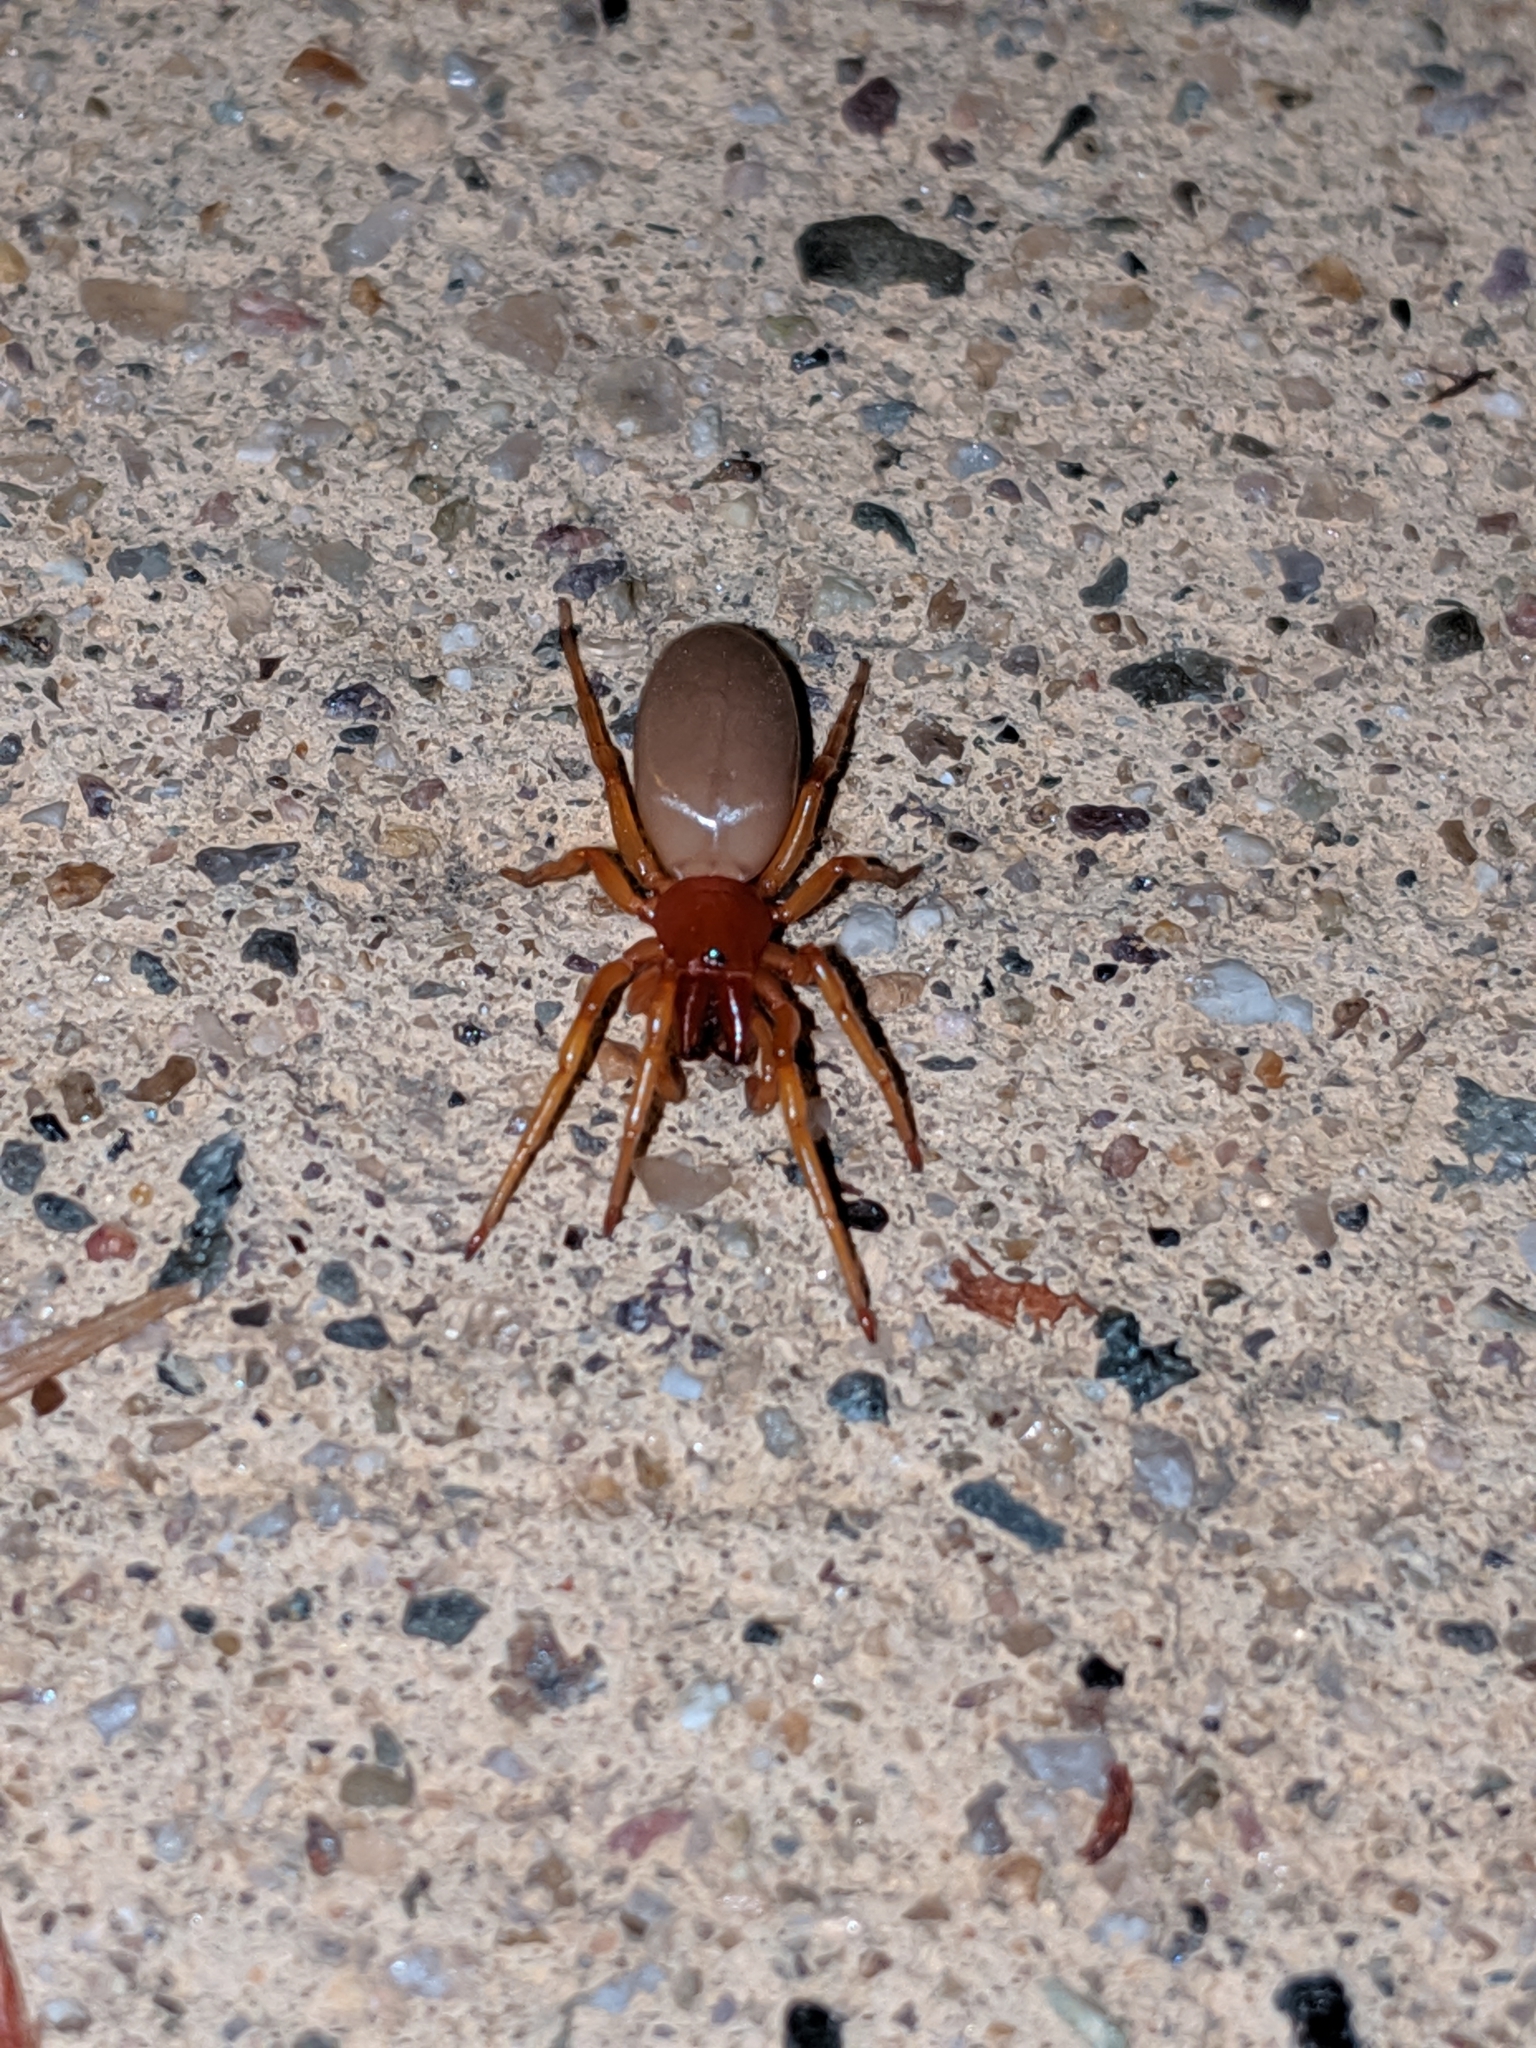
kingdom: Animalia
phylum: Arthropoda
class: Arachnida
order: Araneae
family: Dysderidae
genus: Dysdera
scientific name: Dysdera crocata
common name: Woodlouse spider
